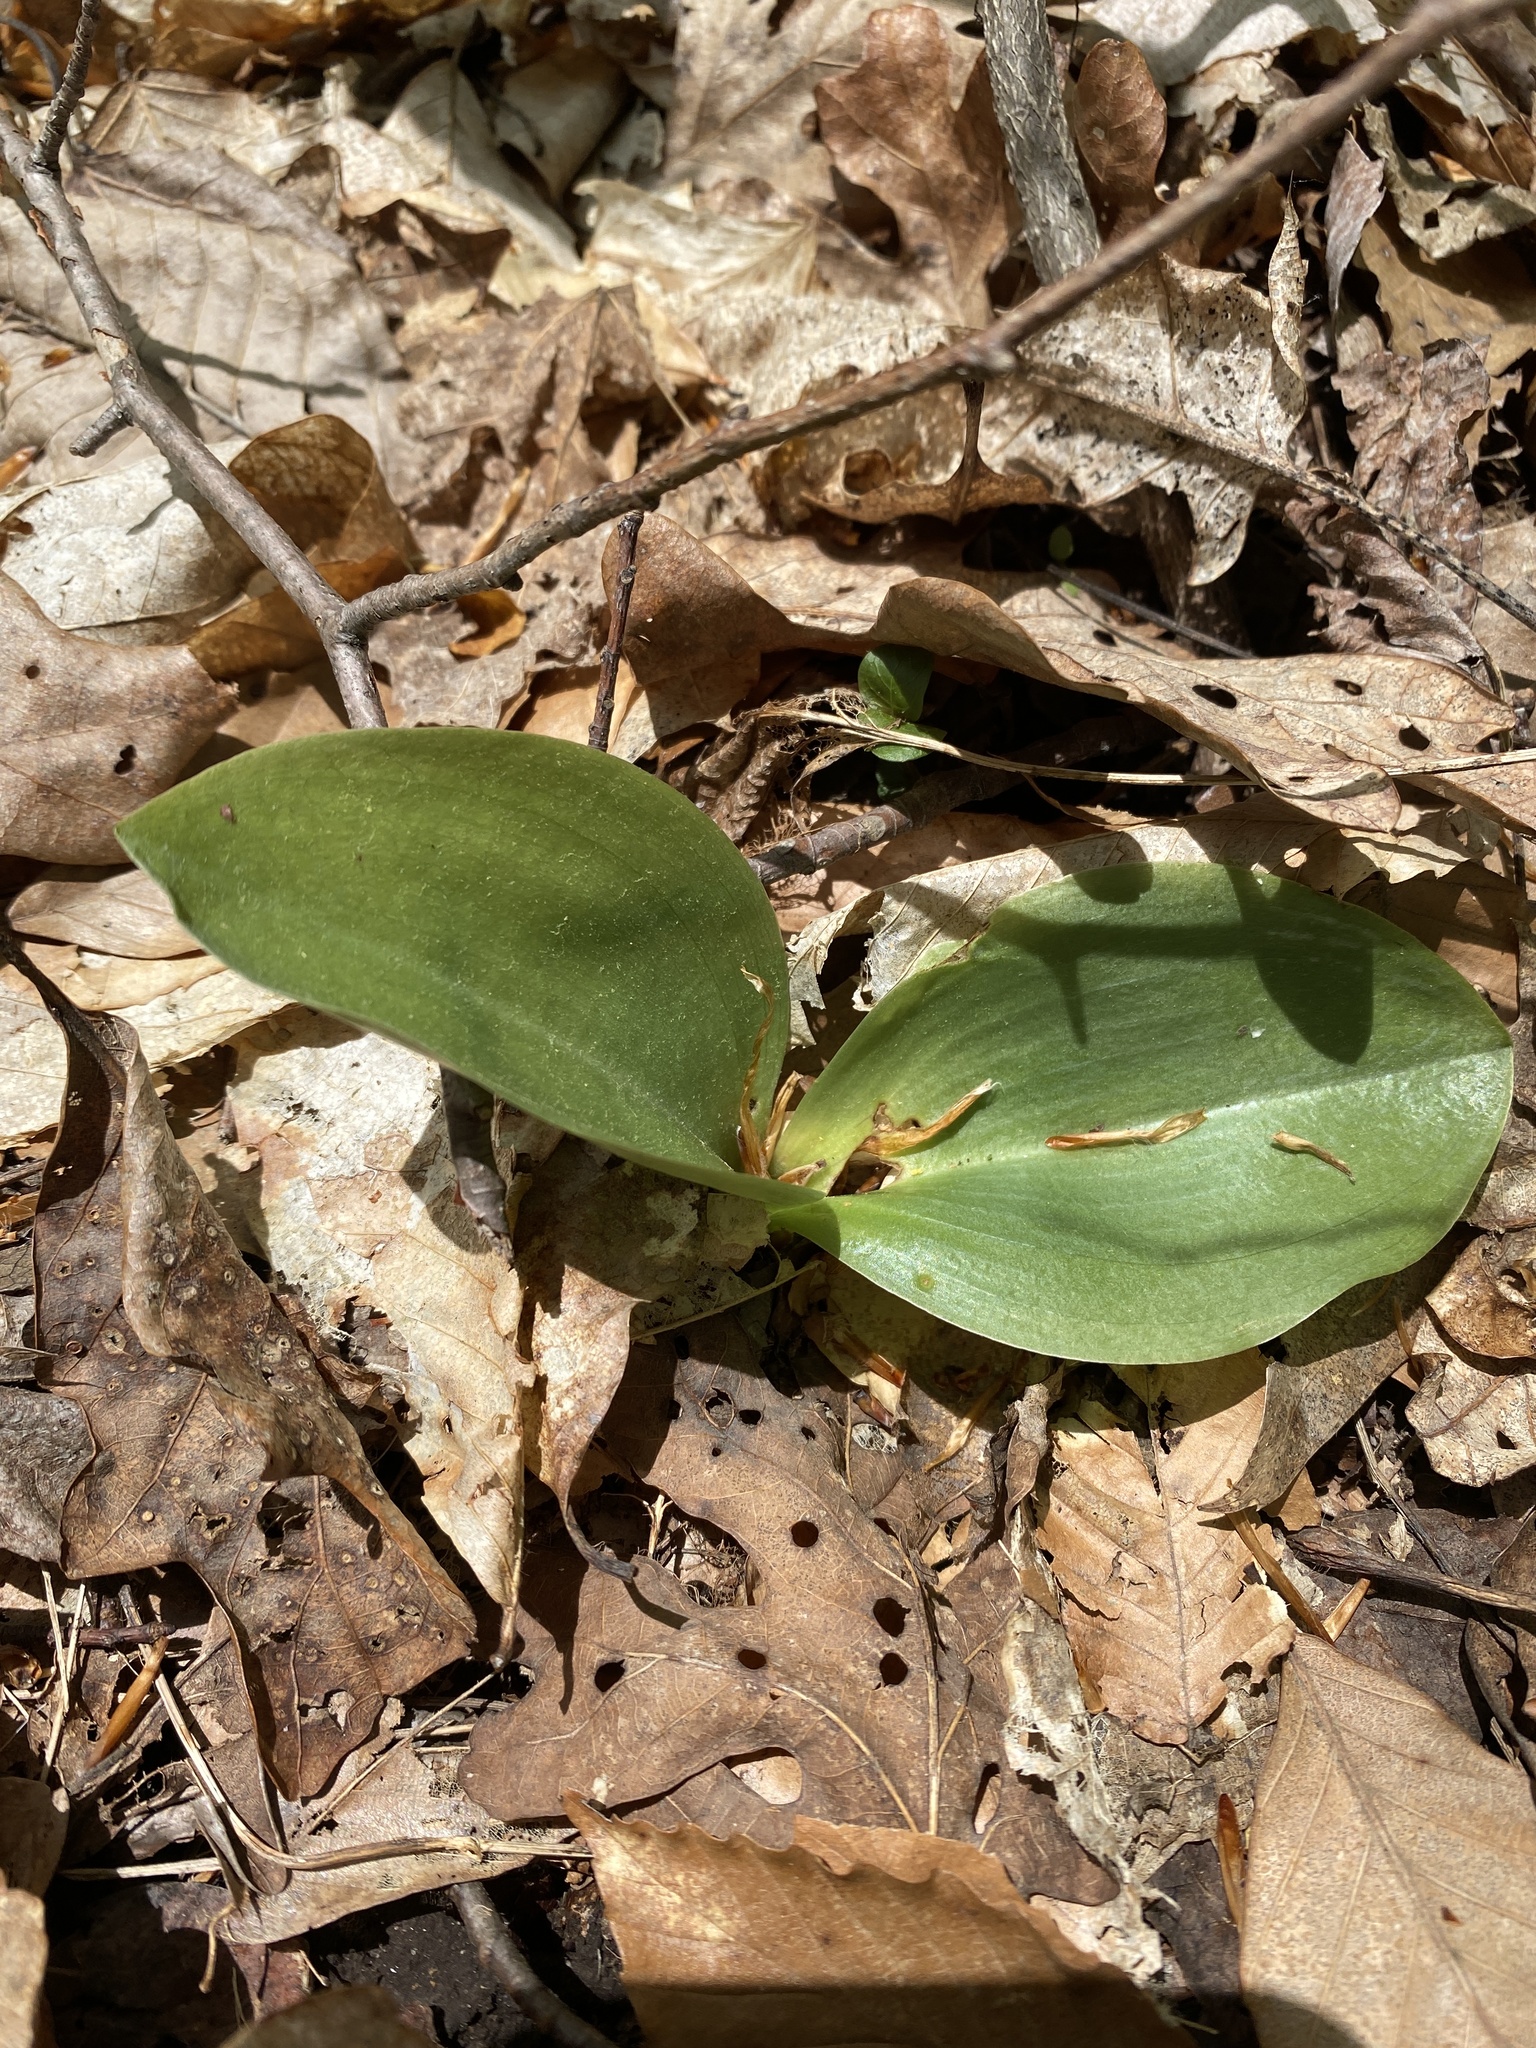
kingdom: Plantae
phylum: Tracheophyta
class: Liliopsida
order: Asparagales
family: Orchidaceae
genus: Platanthera
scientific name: Platanthera orbiculata
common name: Large round-leaved orchid
